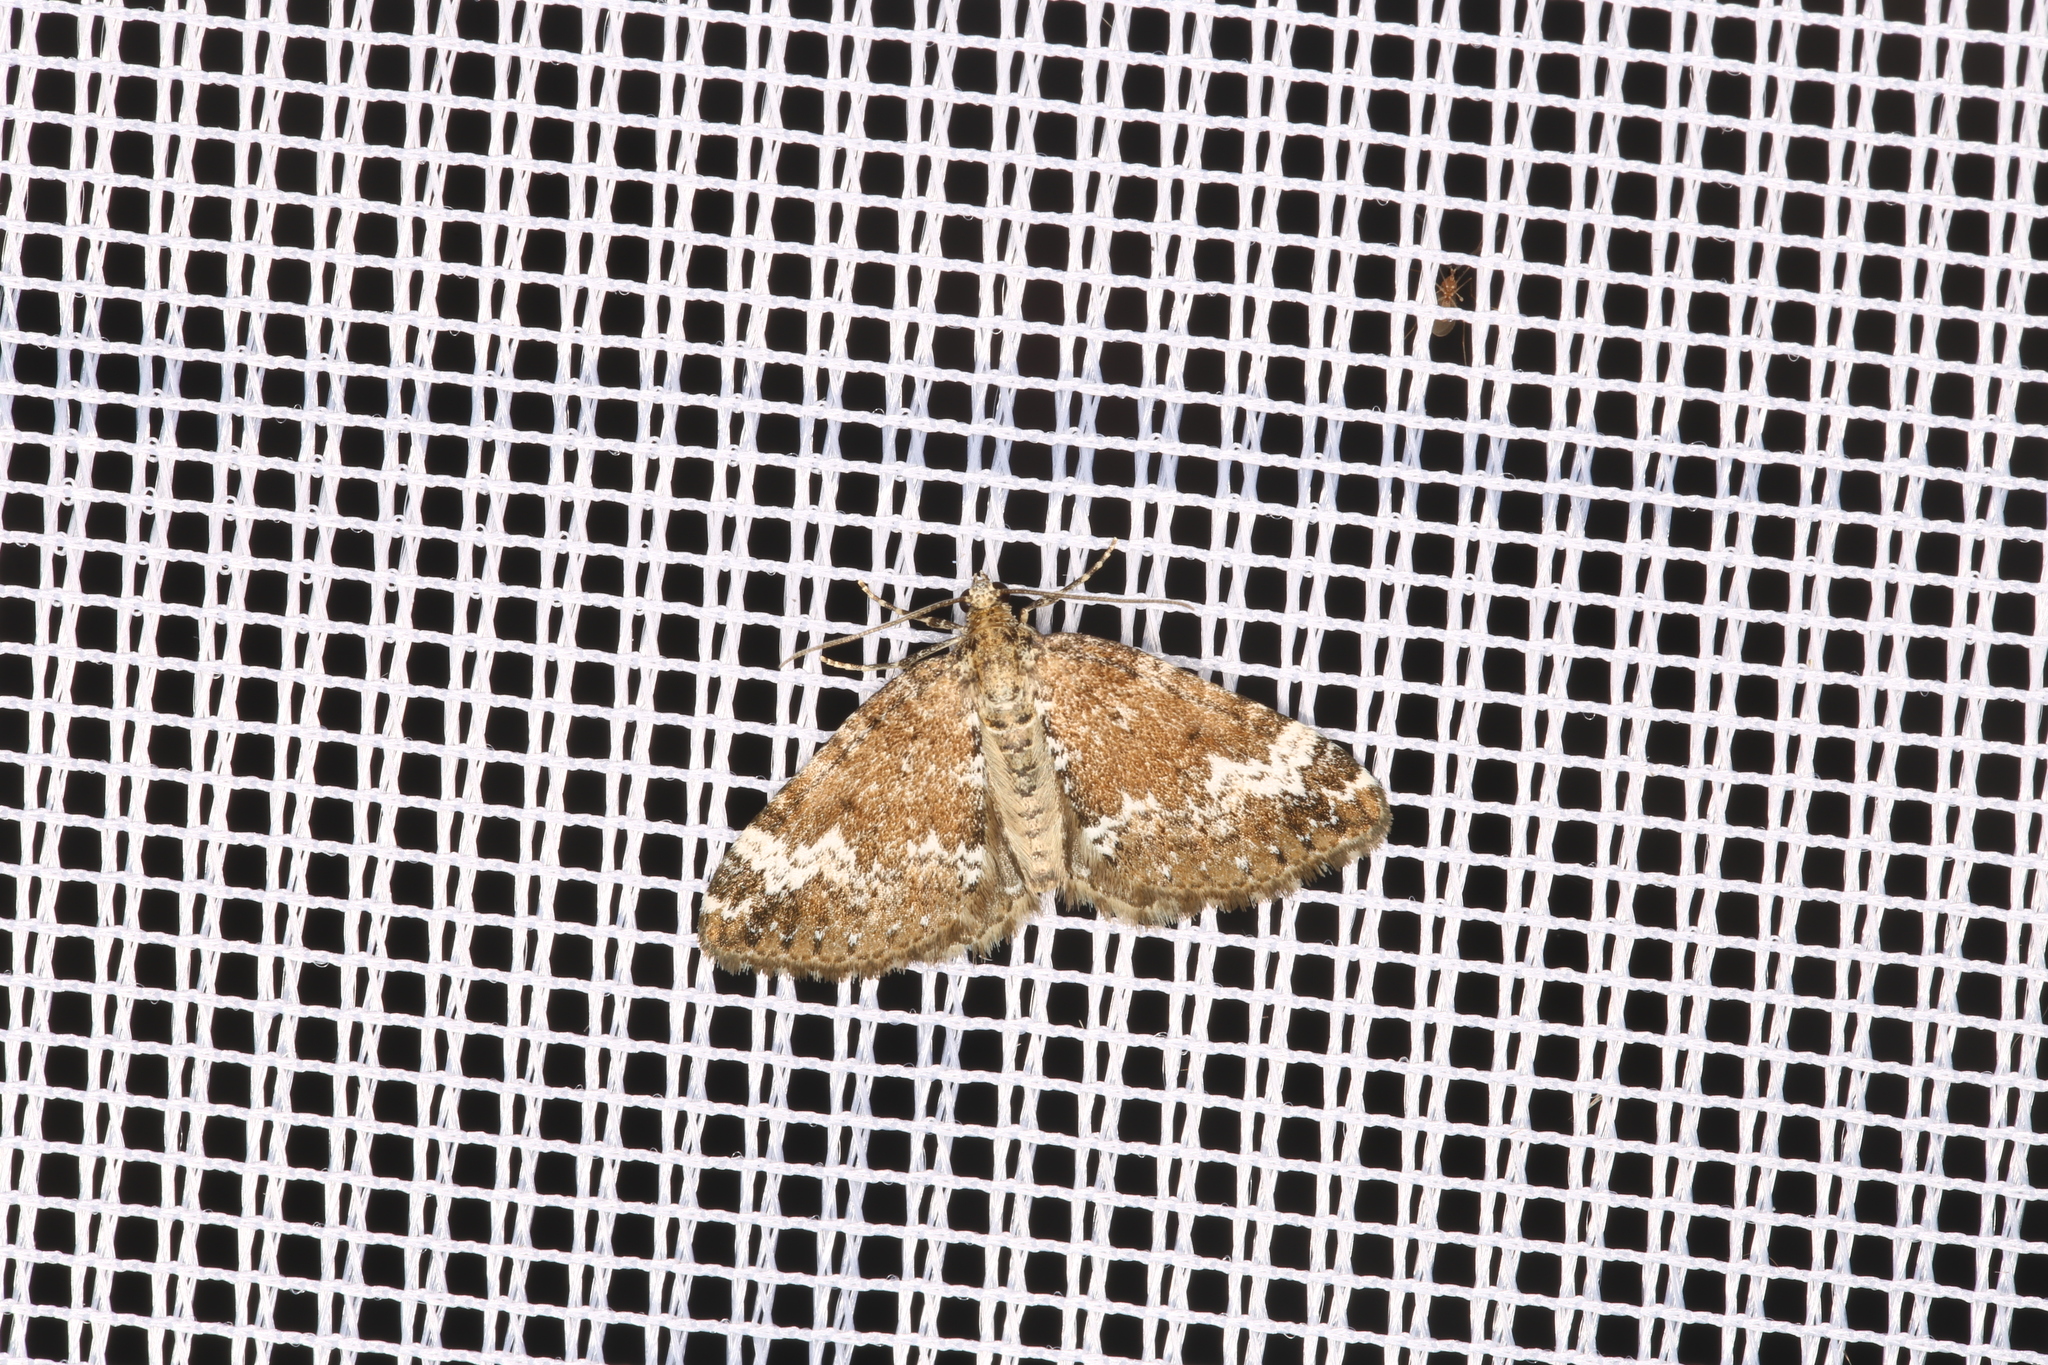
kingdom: Animalia
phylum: Arthropoda
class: Insecta
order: Lepidoptera
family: Geometridae
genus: Perizoma
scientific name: Perizoma alchemillata
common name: Small rivulet
